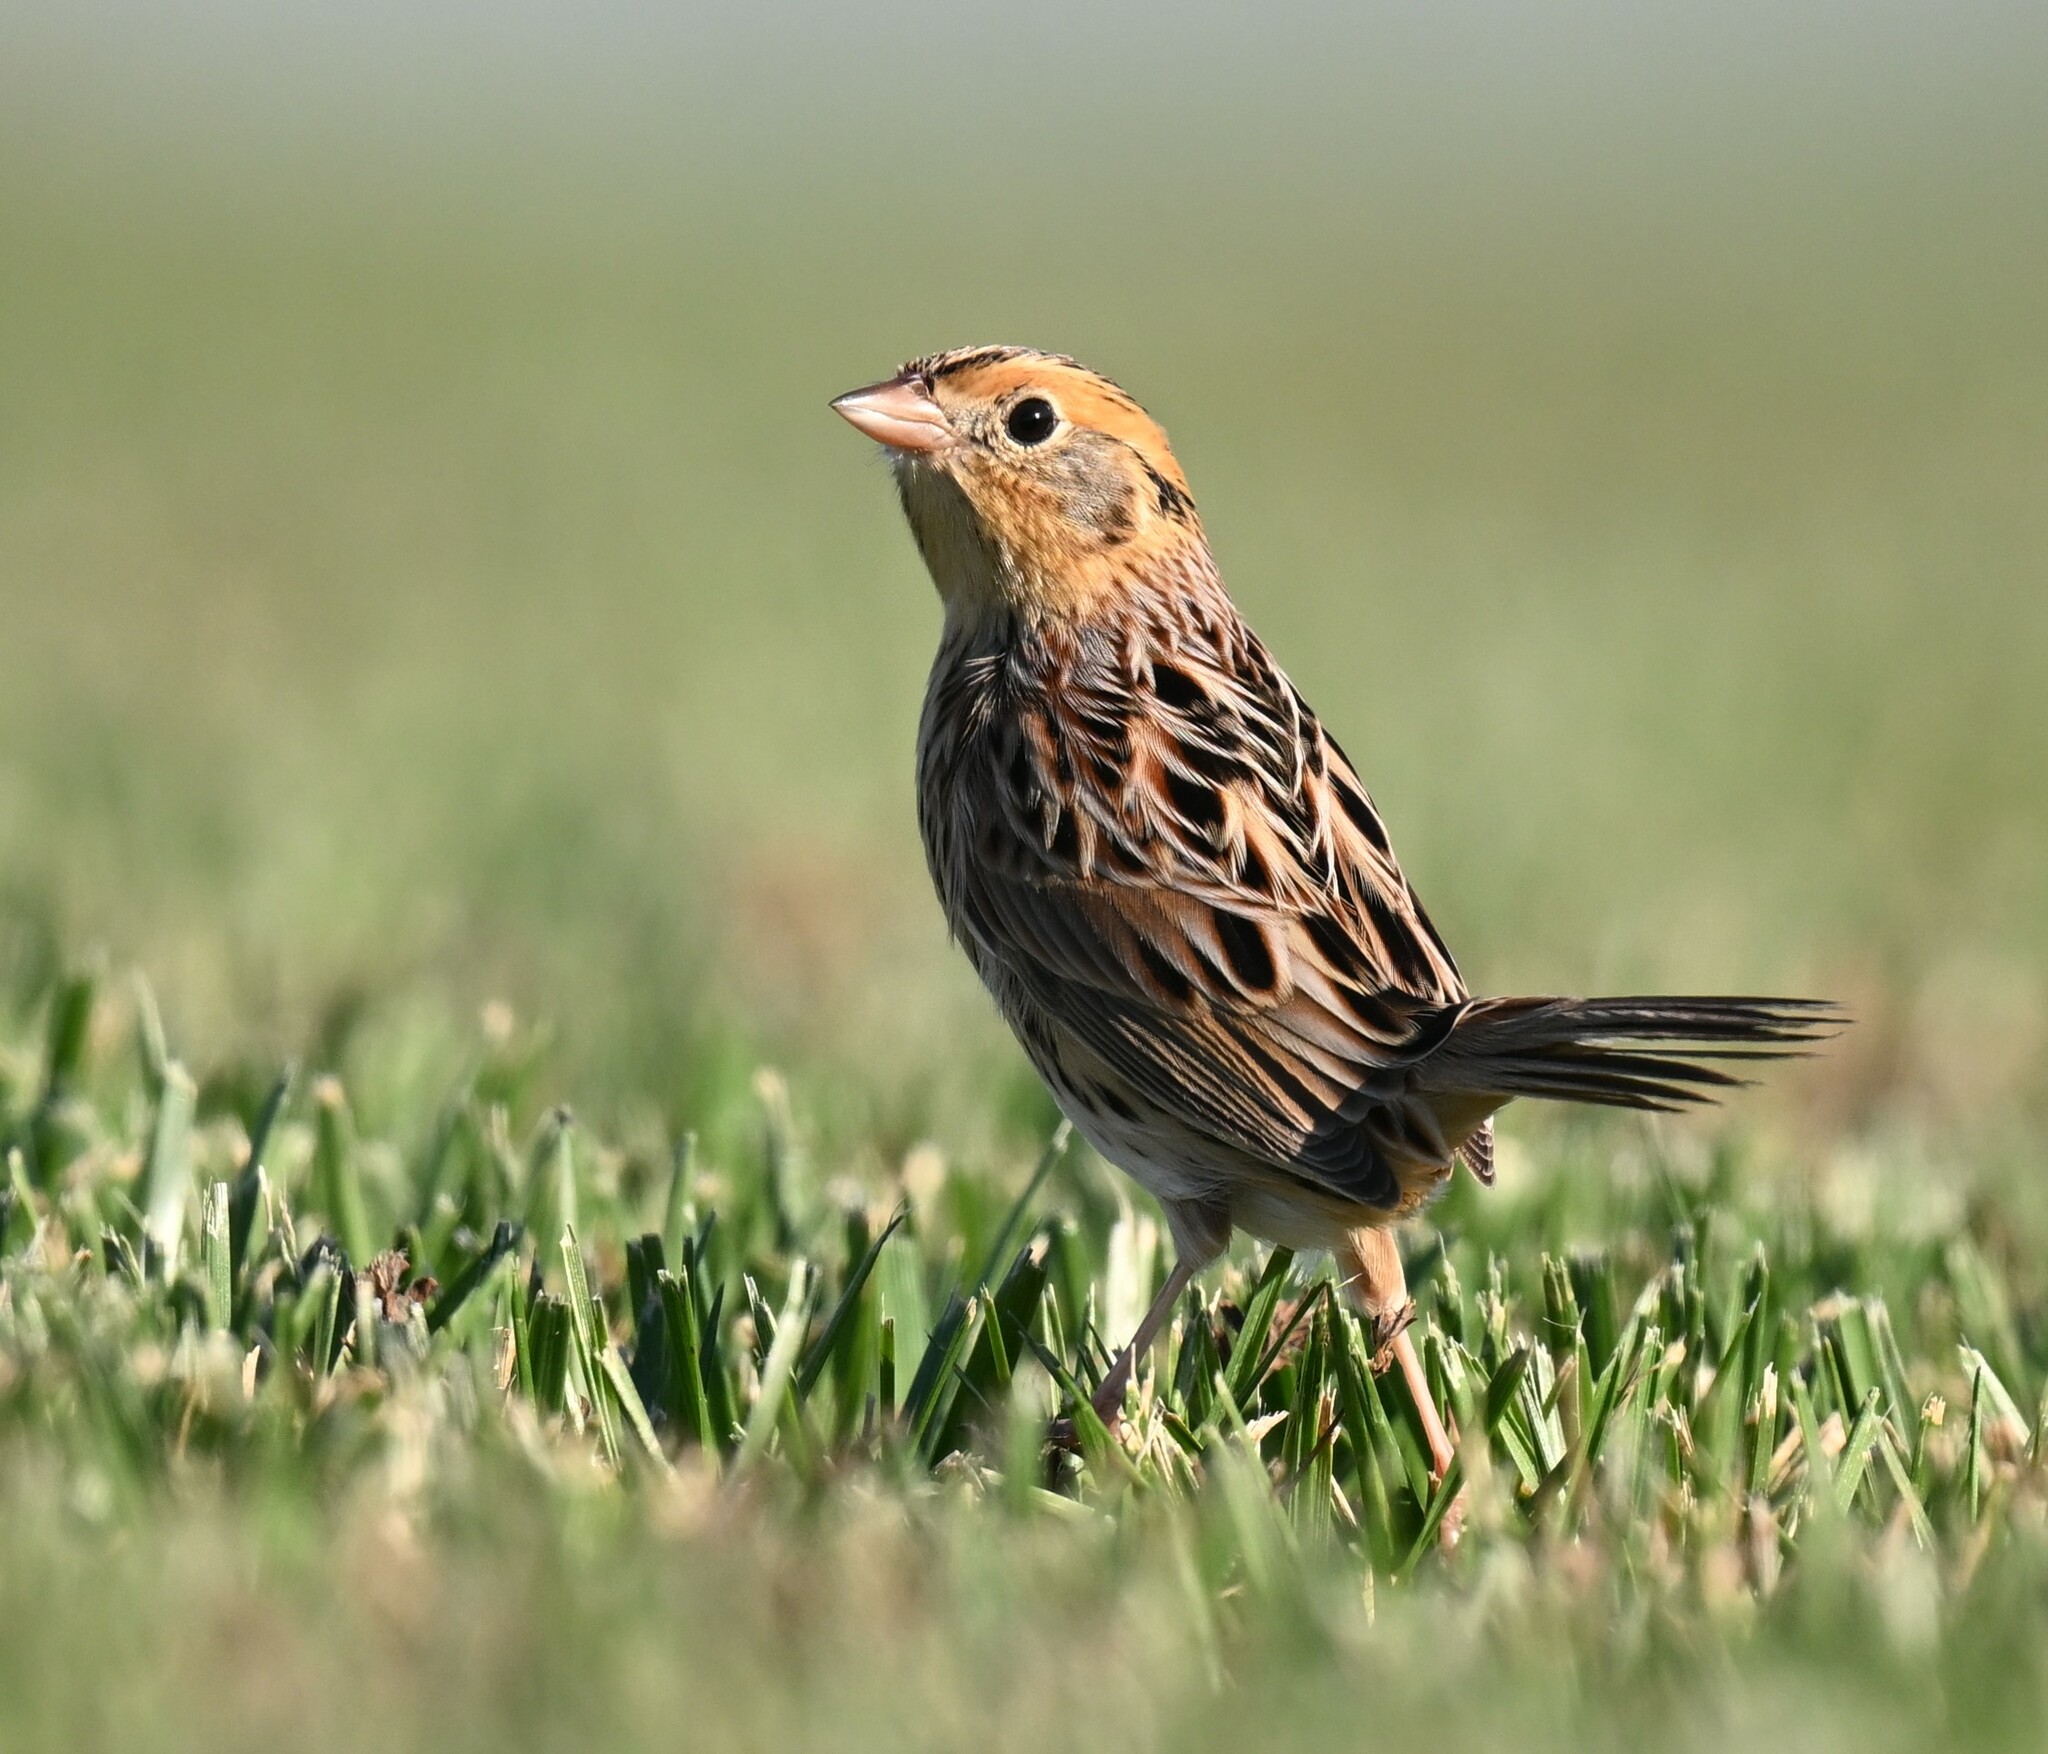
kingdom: Animalia
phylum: Chordata
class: Aves
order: Passeriformes
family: Passerellidae
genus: Ammospiza
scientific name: Ammospiza leconteii
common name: Le conte's sparrow
